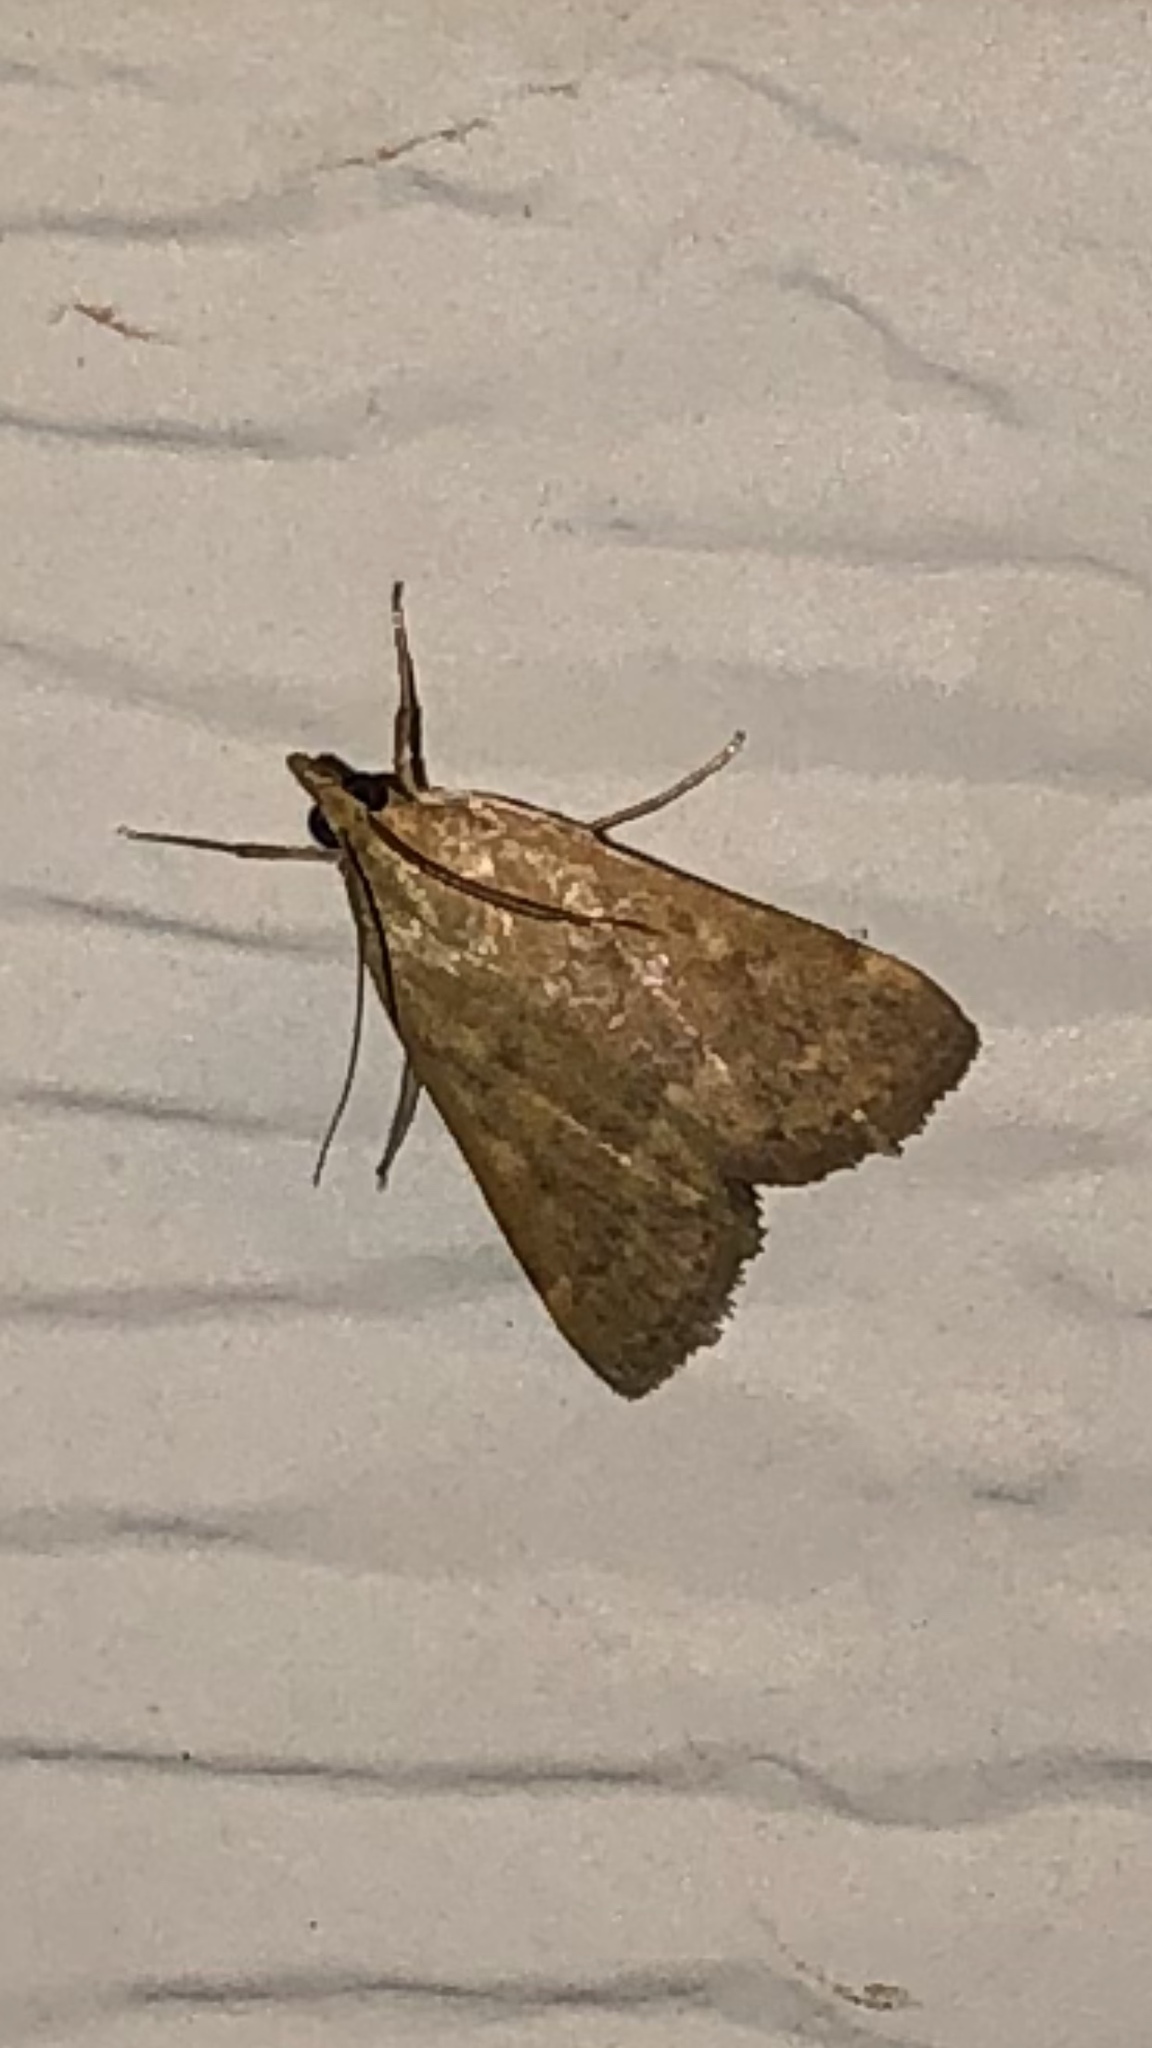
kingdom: Animalia
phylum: Arthropoda
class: Insecta
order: Lepidoptera
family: Crambidae
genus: Achyra
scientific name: Achyra rantalis
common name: Garden webworm
